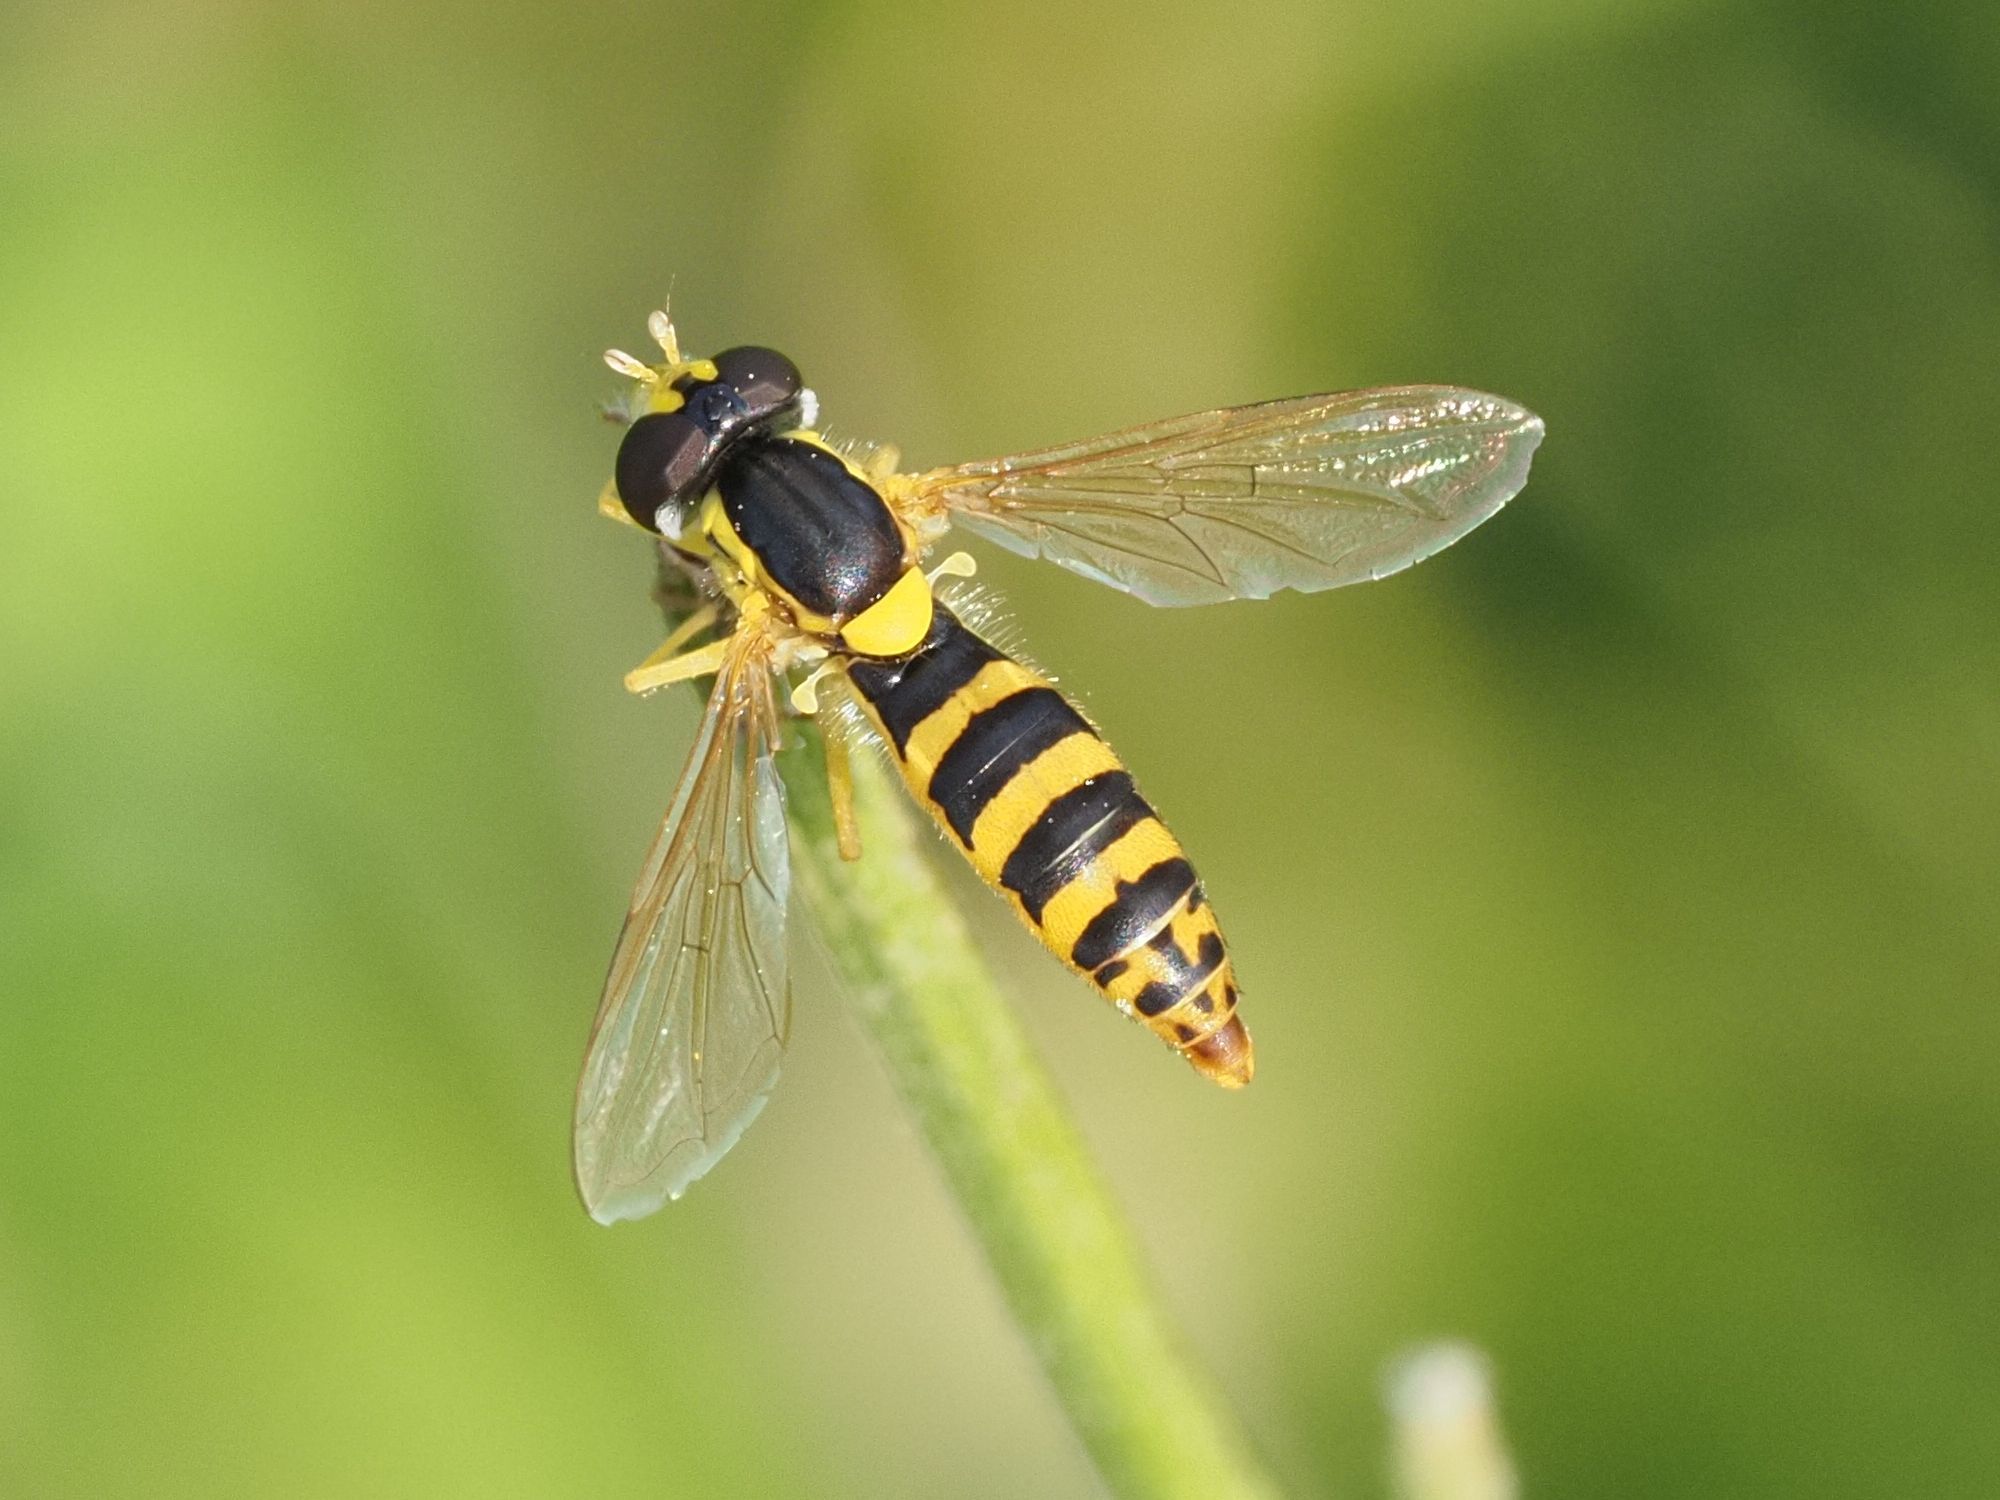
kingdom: Animalia
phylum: Arthropoda
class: Insecta
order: Diptera
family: Syrphidae
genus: Sphaerophoria
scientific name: Sphaerophoria
